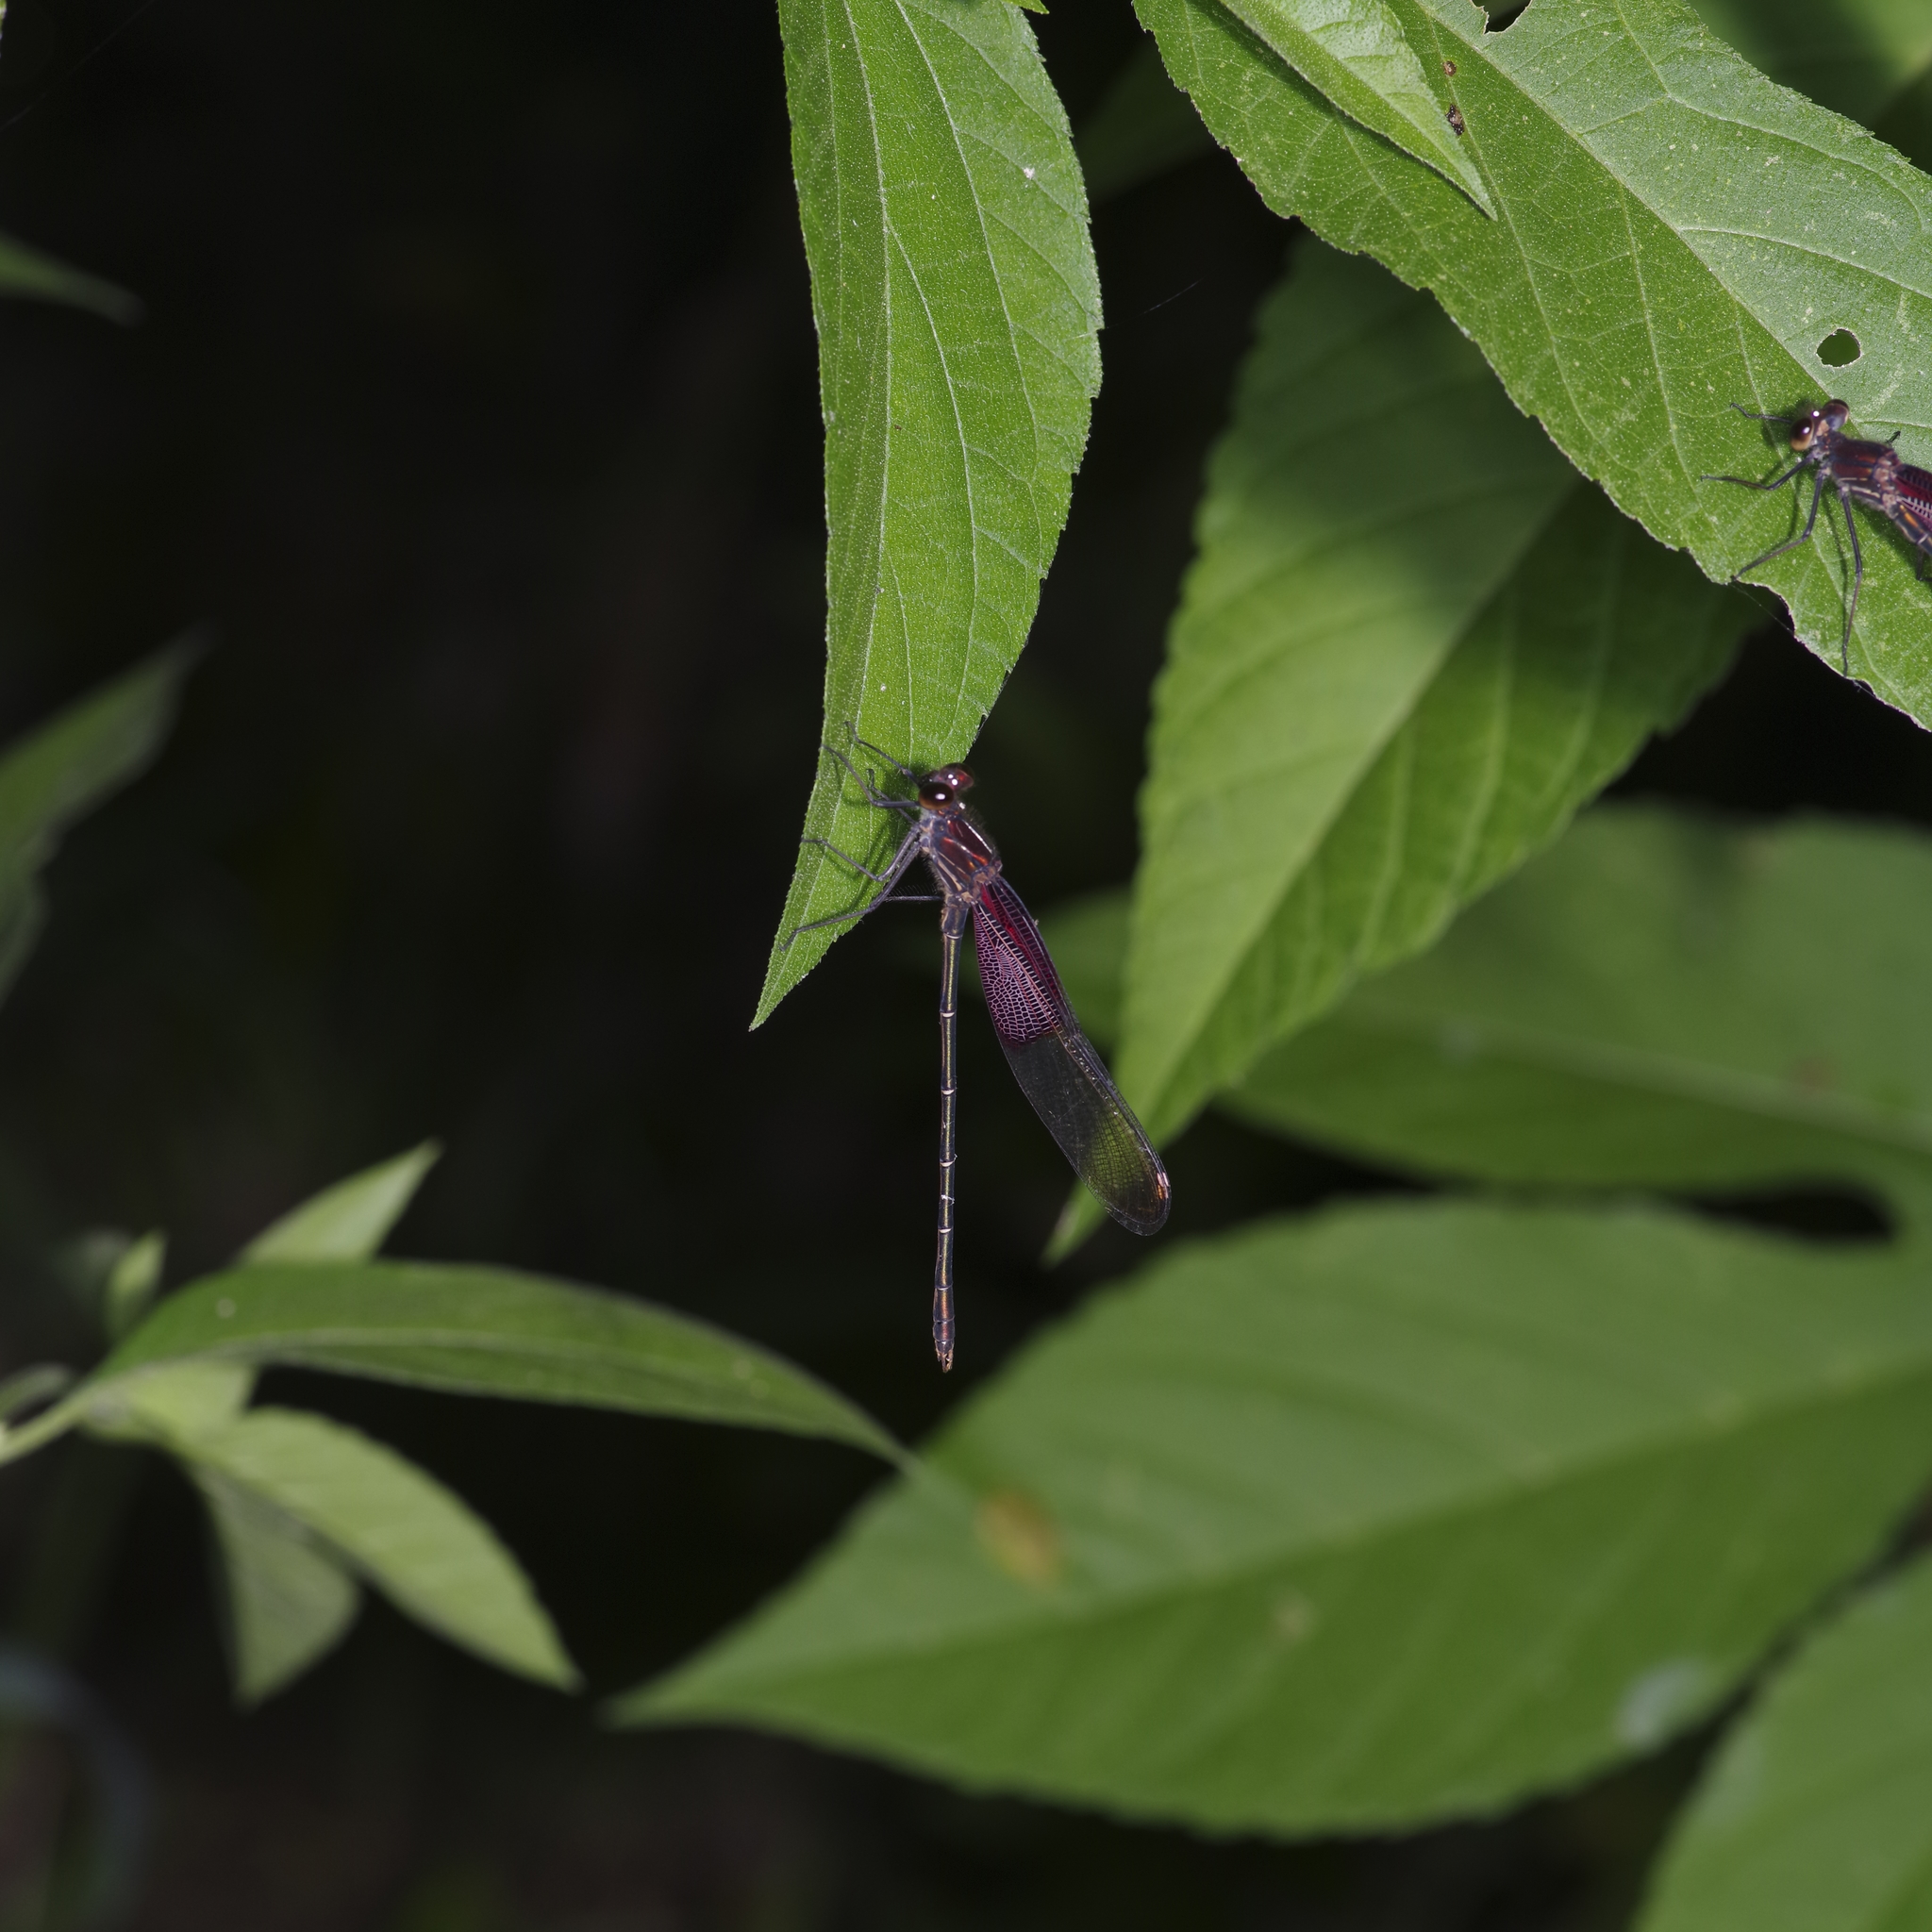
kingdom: Animalia
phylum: Arthropoda
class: Insecta
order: Odonata
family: Calopterygidae
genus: Hetaerina
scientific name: Hetaerina americana
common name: American rubyspot
